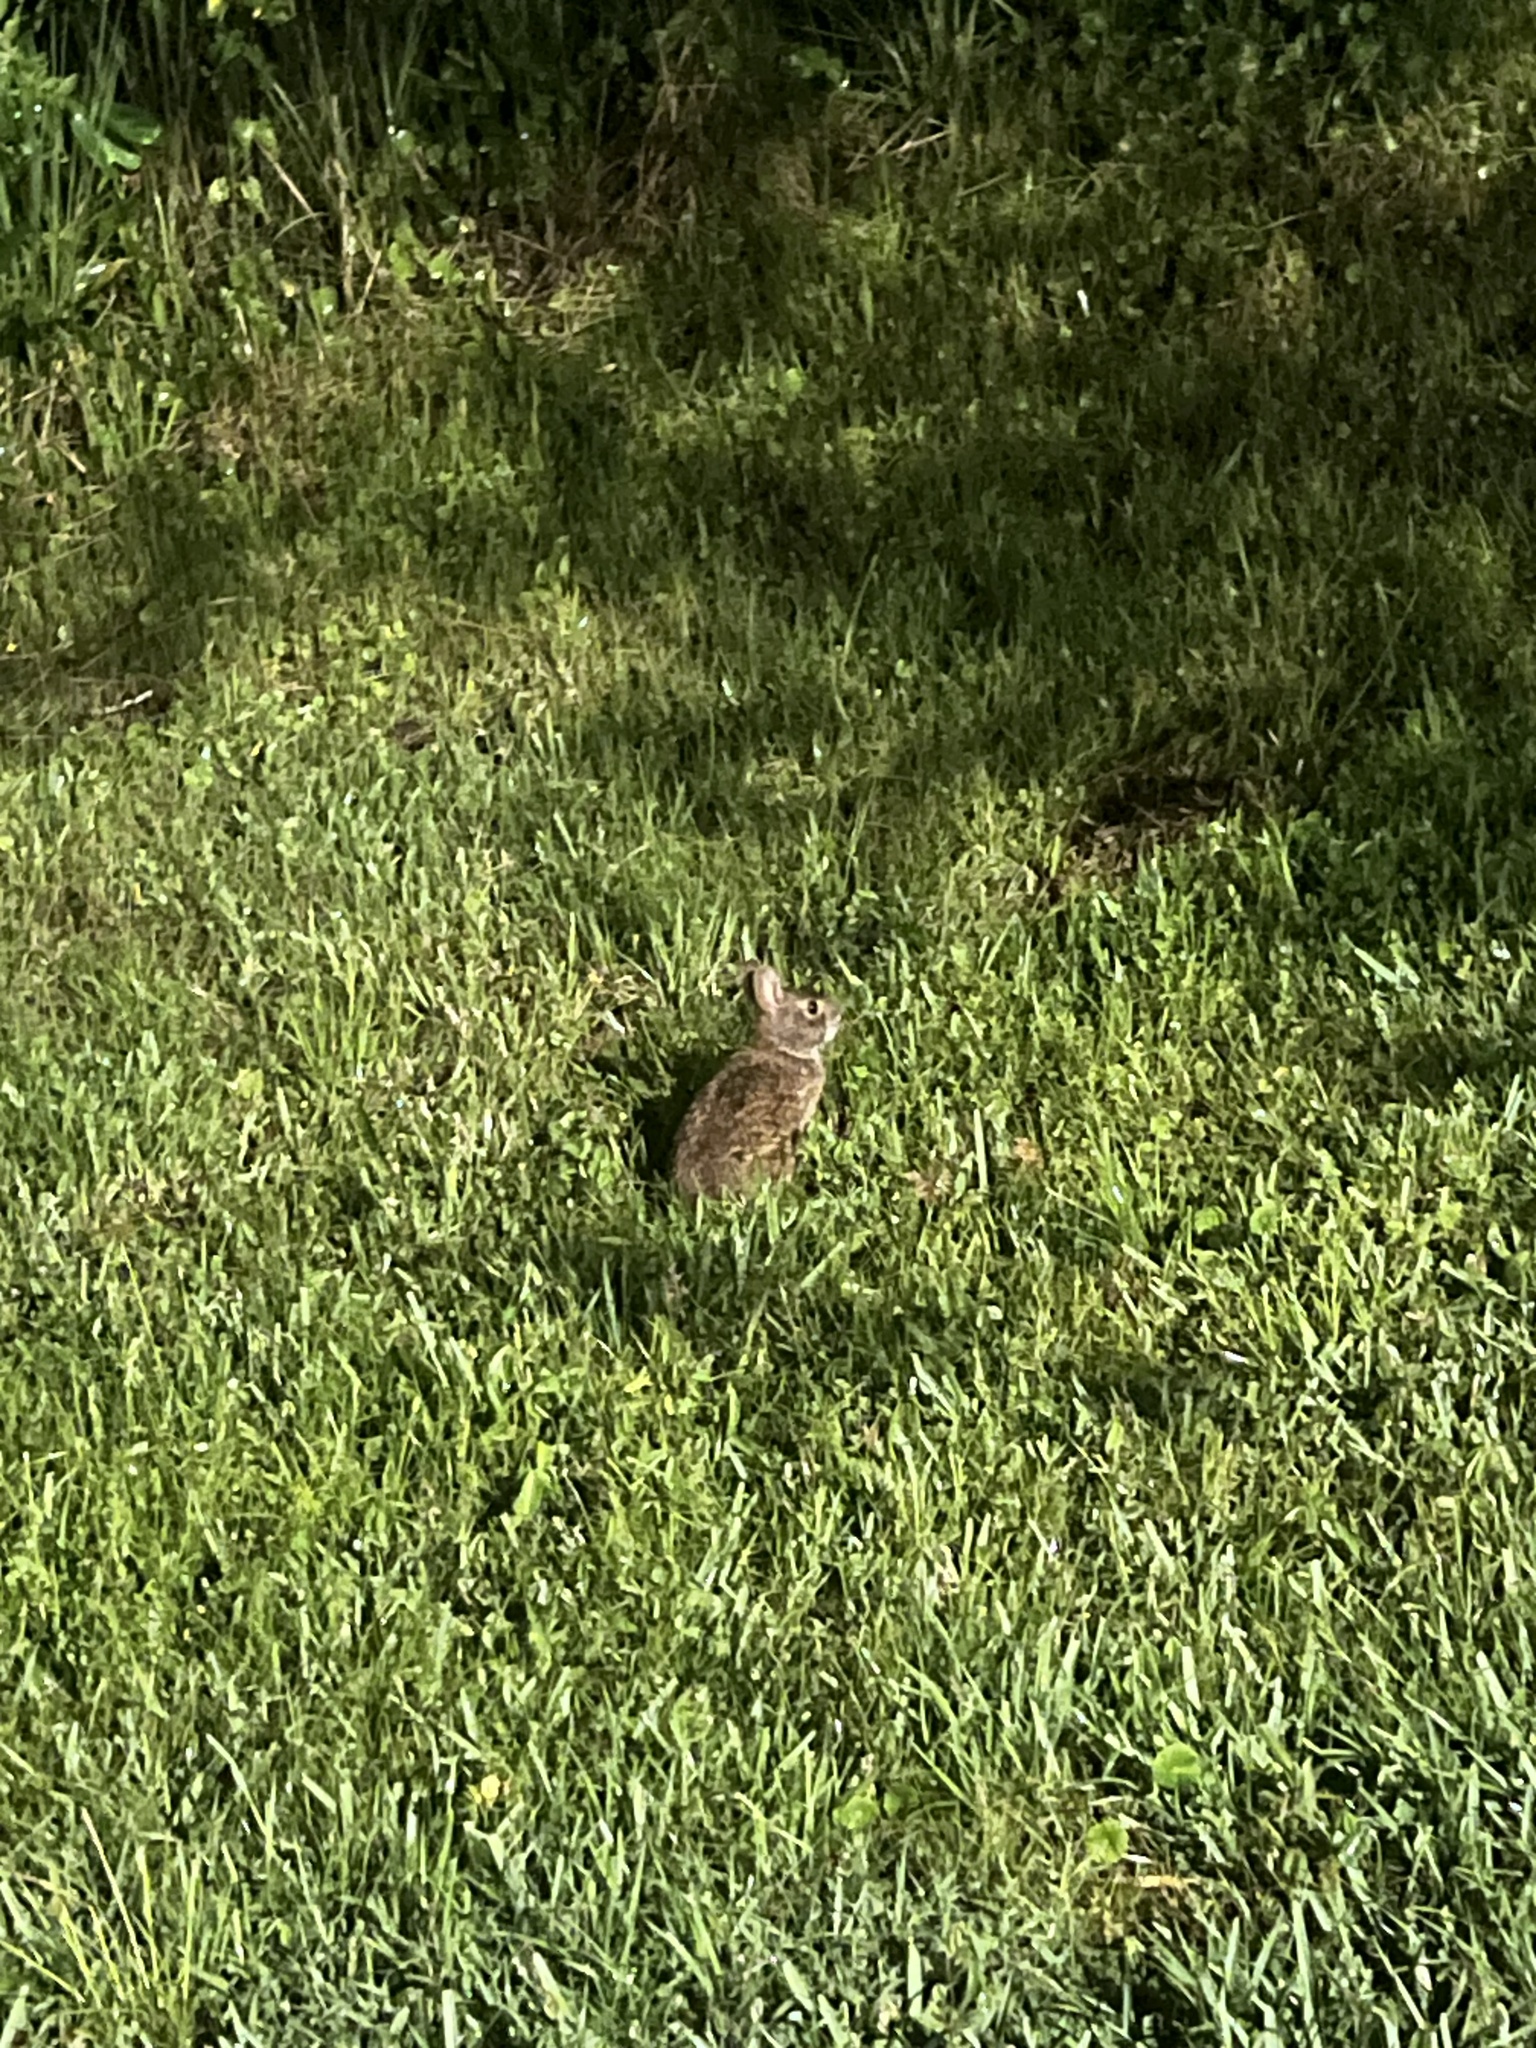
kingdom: Animalia
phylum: Chordata
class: Mammalia
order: Lagomorpha
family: Leporidae
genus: Sylvilagus
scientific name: Sylvilagus palustris
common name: Marsh rabbit
